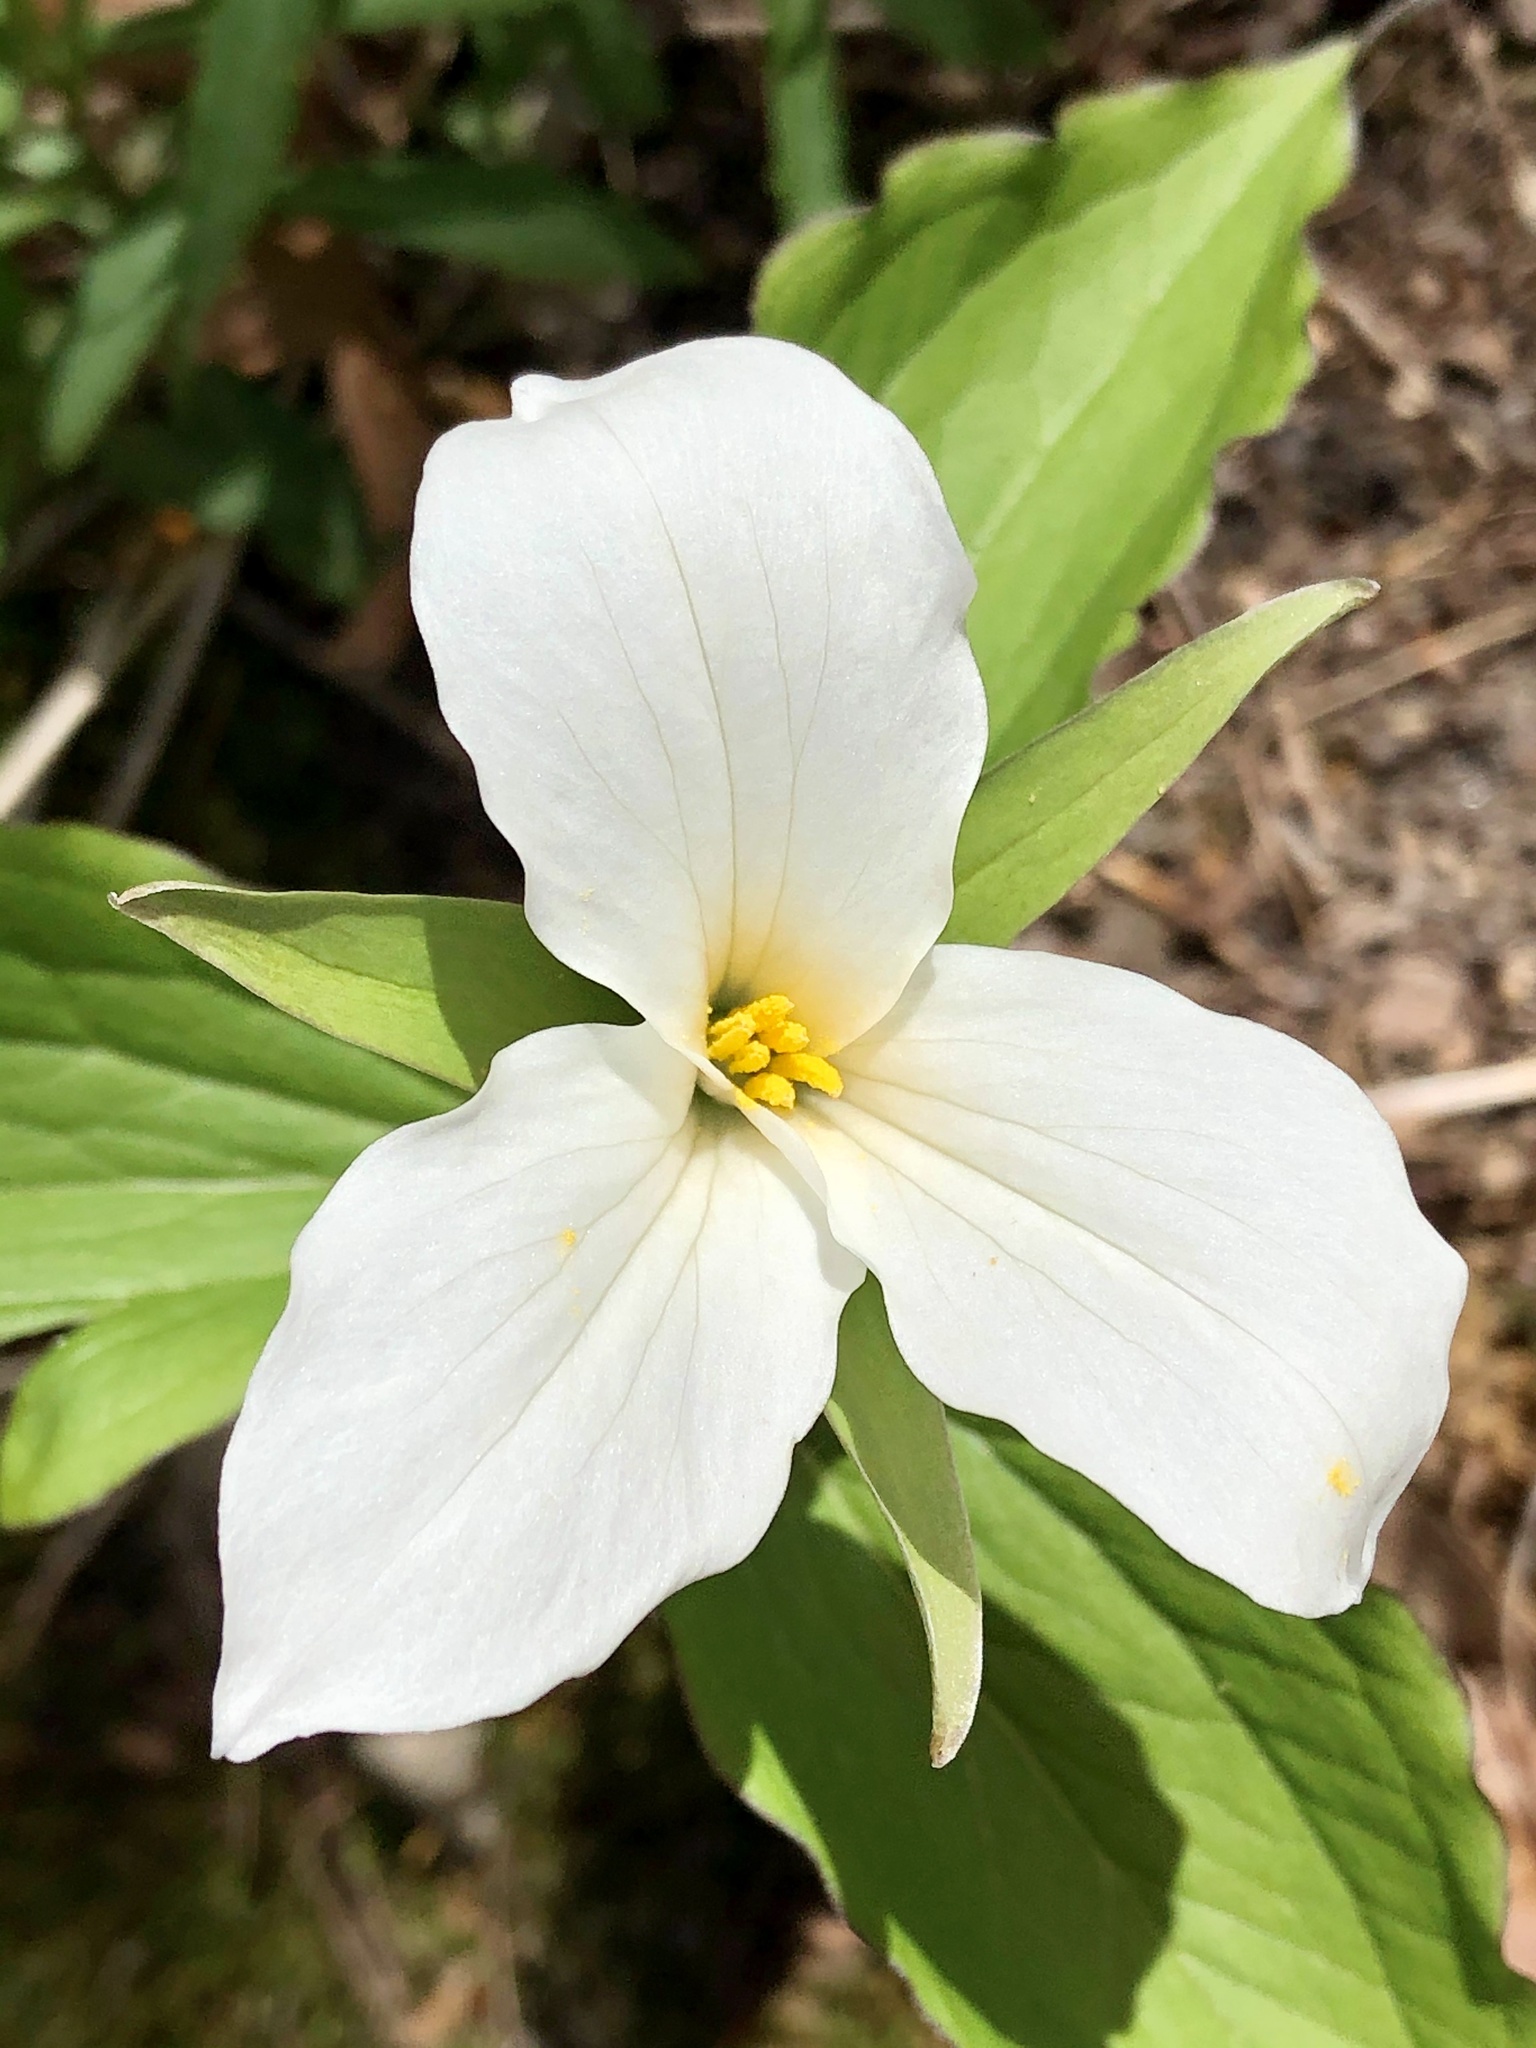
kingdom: Plantae
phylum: Tracheophyta
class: Liliopsida
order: Liliales
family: Melanthiaceae
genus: Trillium
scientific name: Trillium grandiflorum
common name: Great white trillium
